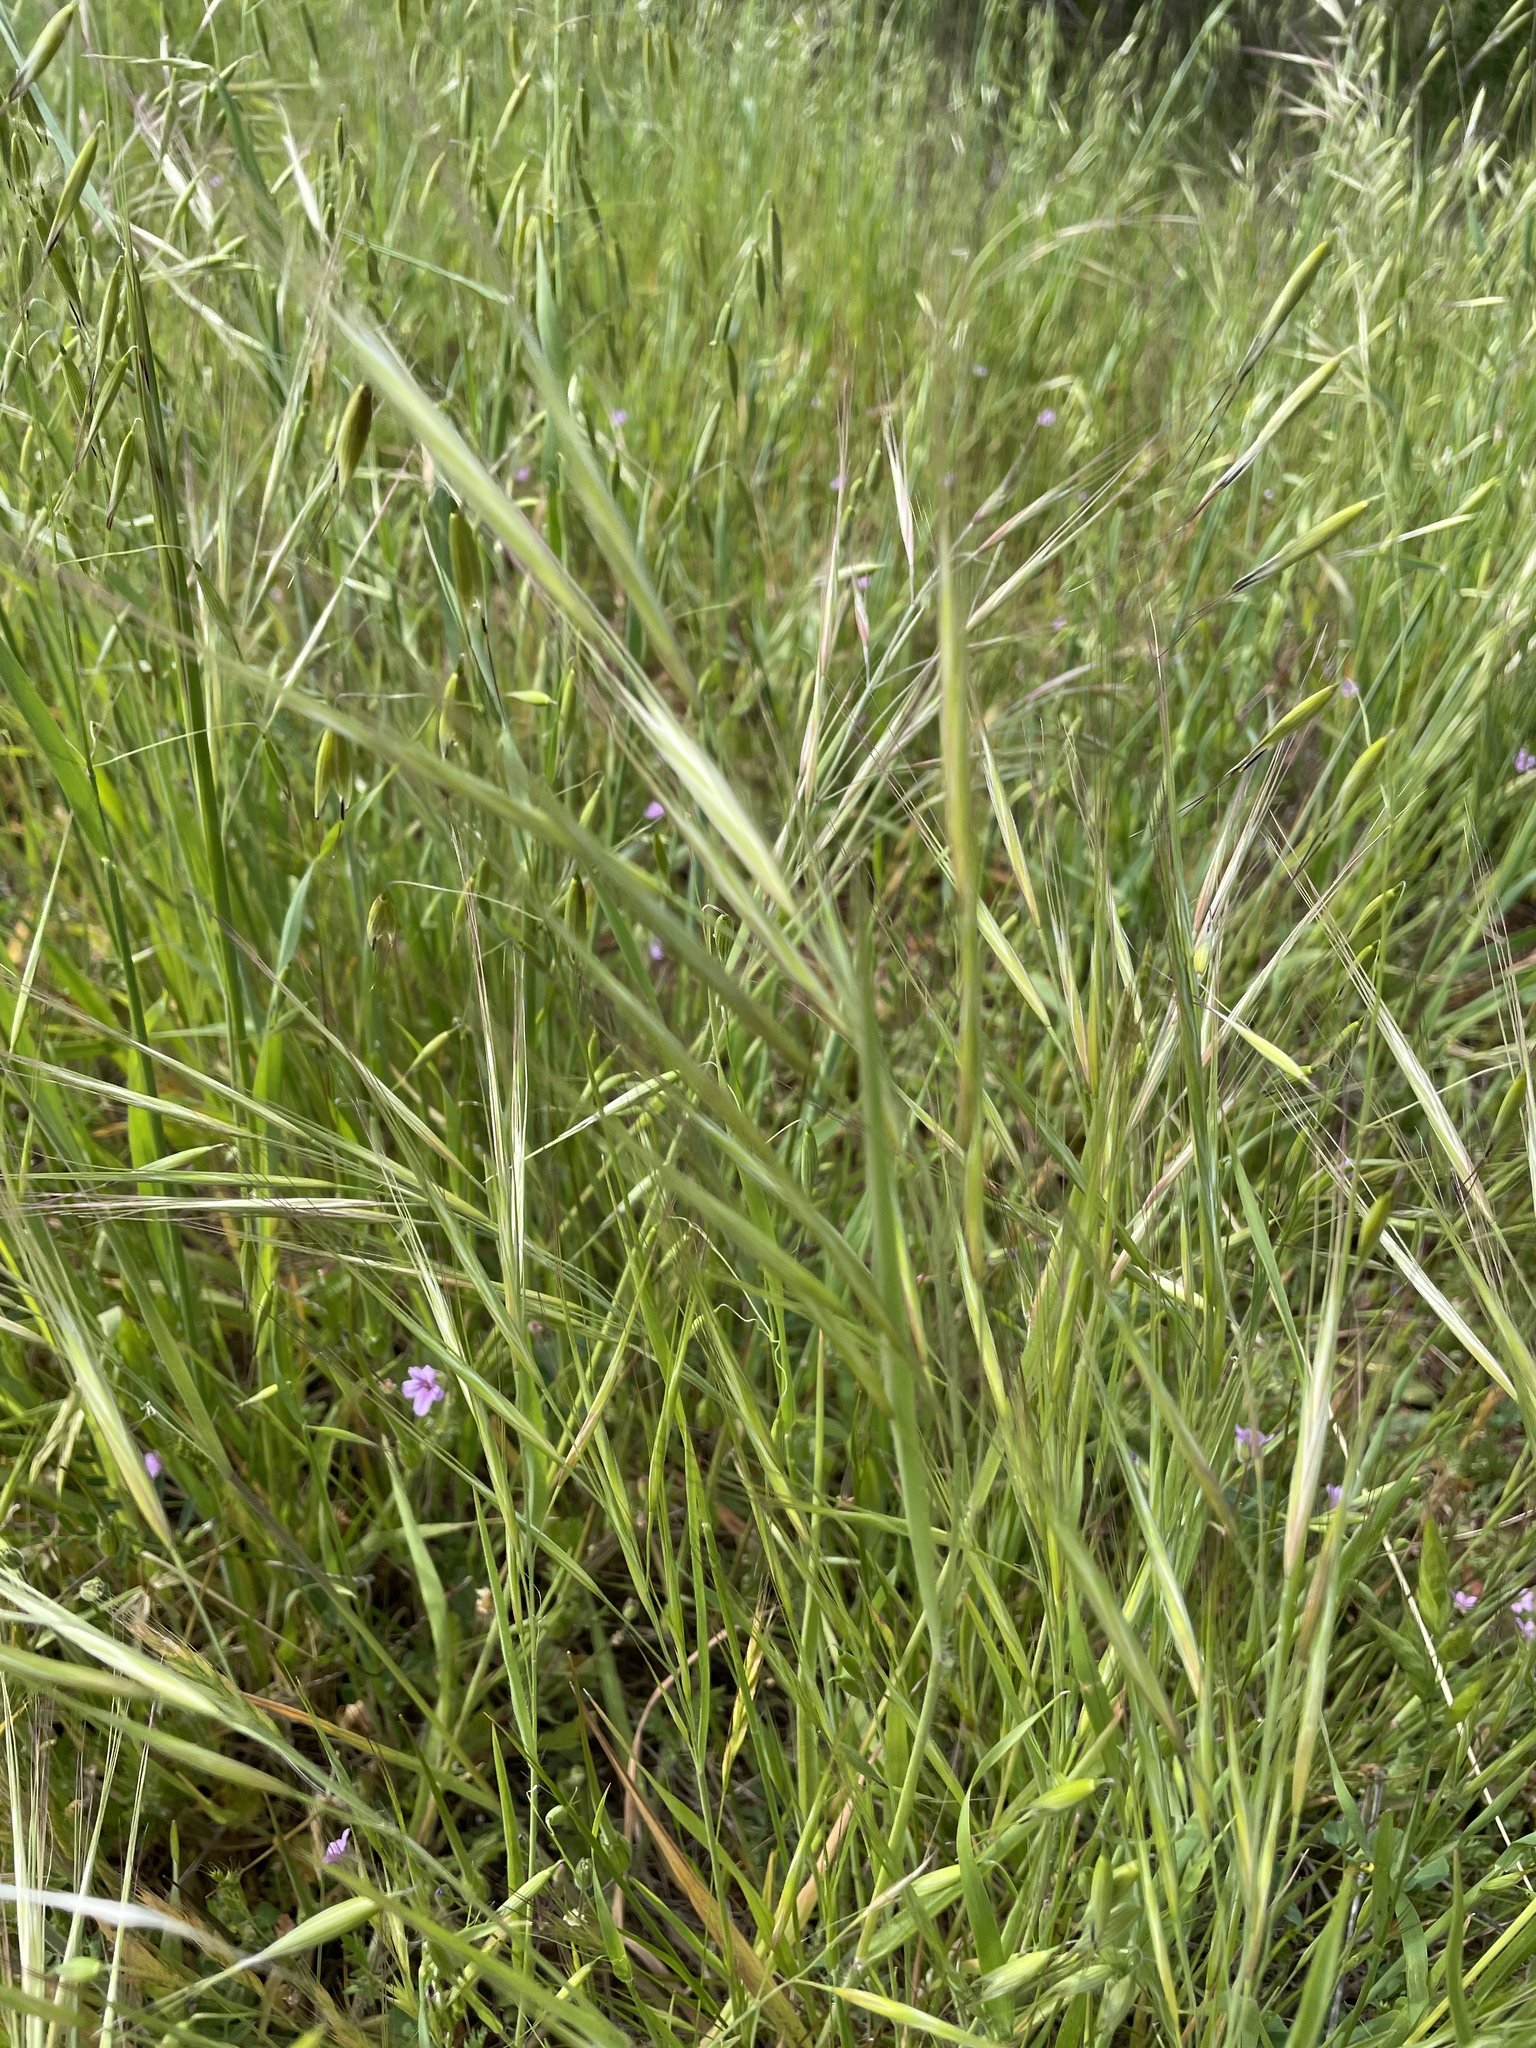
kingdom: Plantae
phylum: Tracheophyta
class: Liliopsida
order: Poales
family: Poaceae
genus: Bromus
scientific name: Bromus diandrus
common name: Ripgut brome
